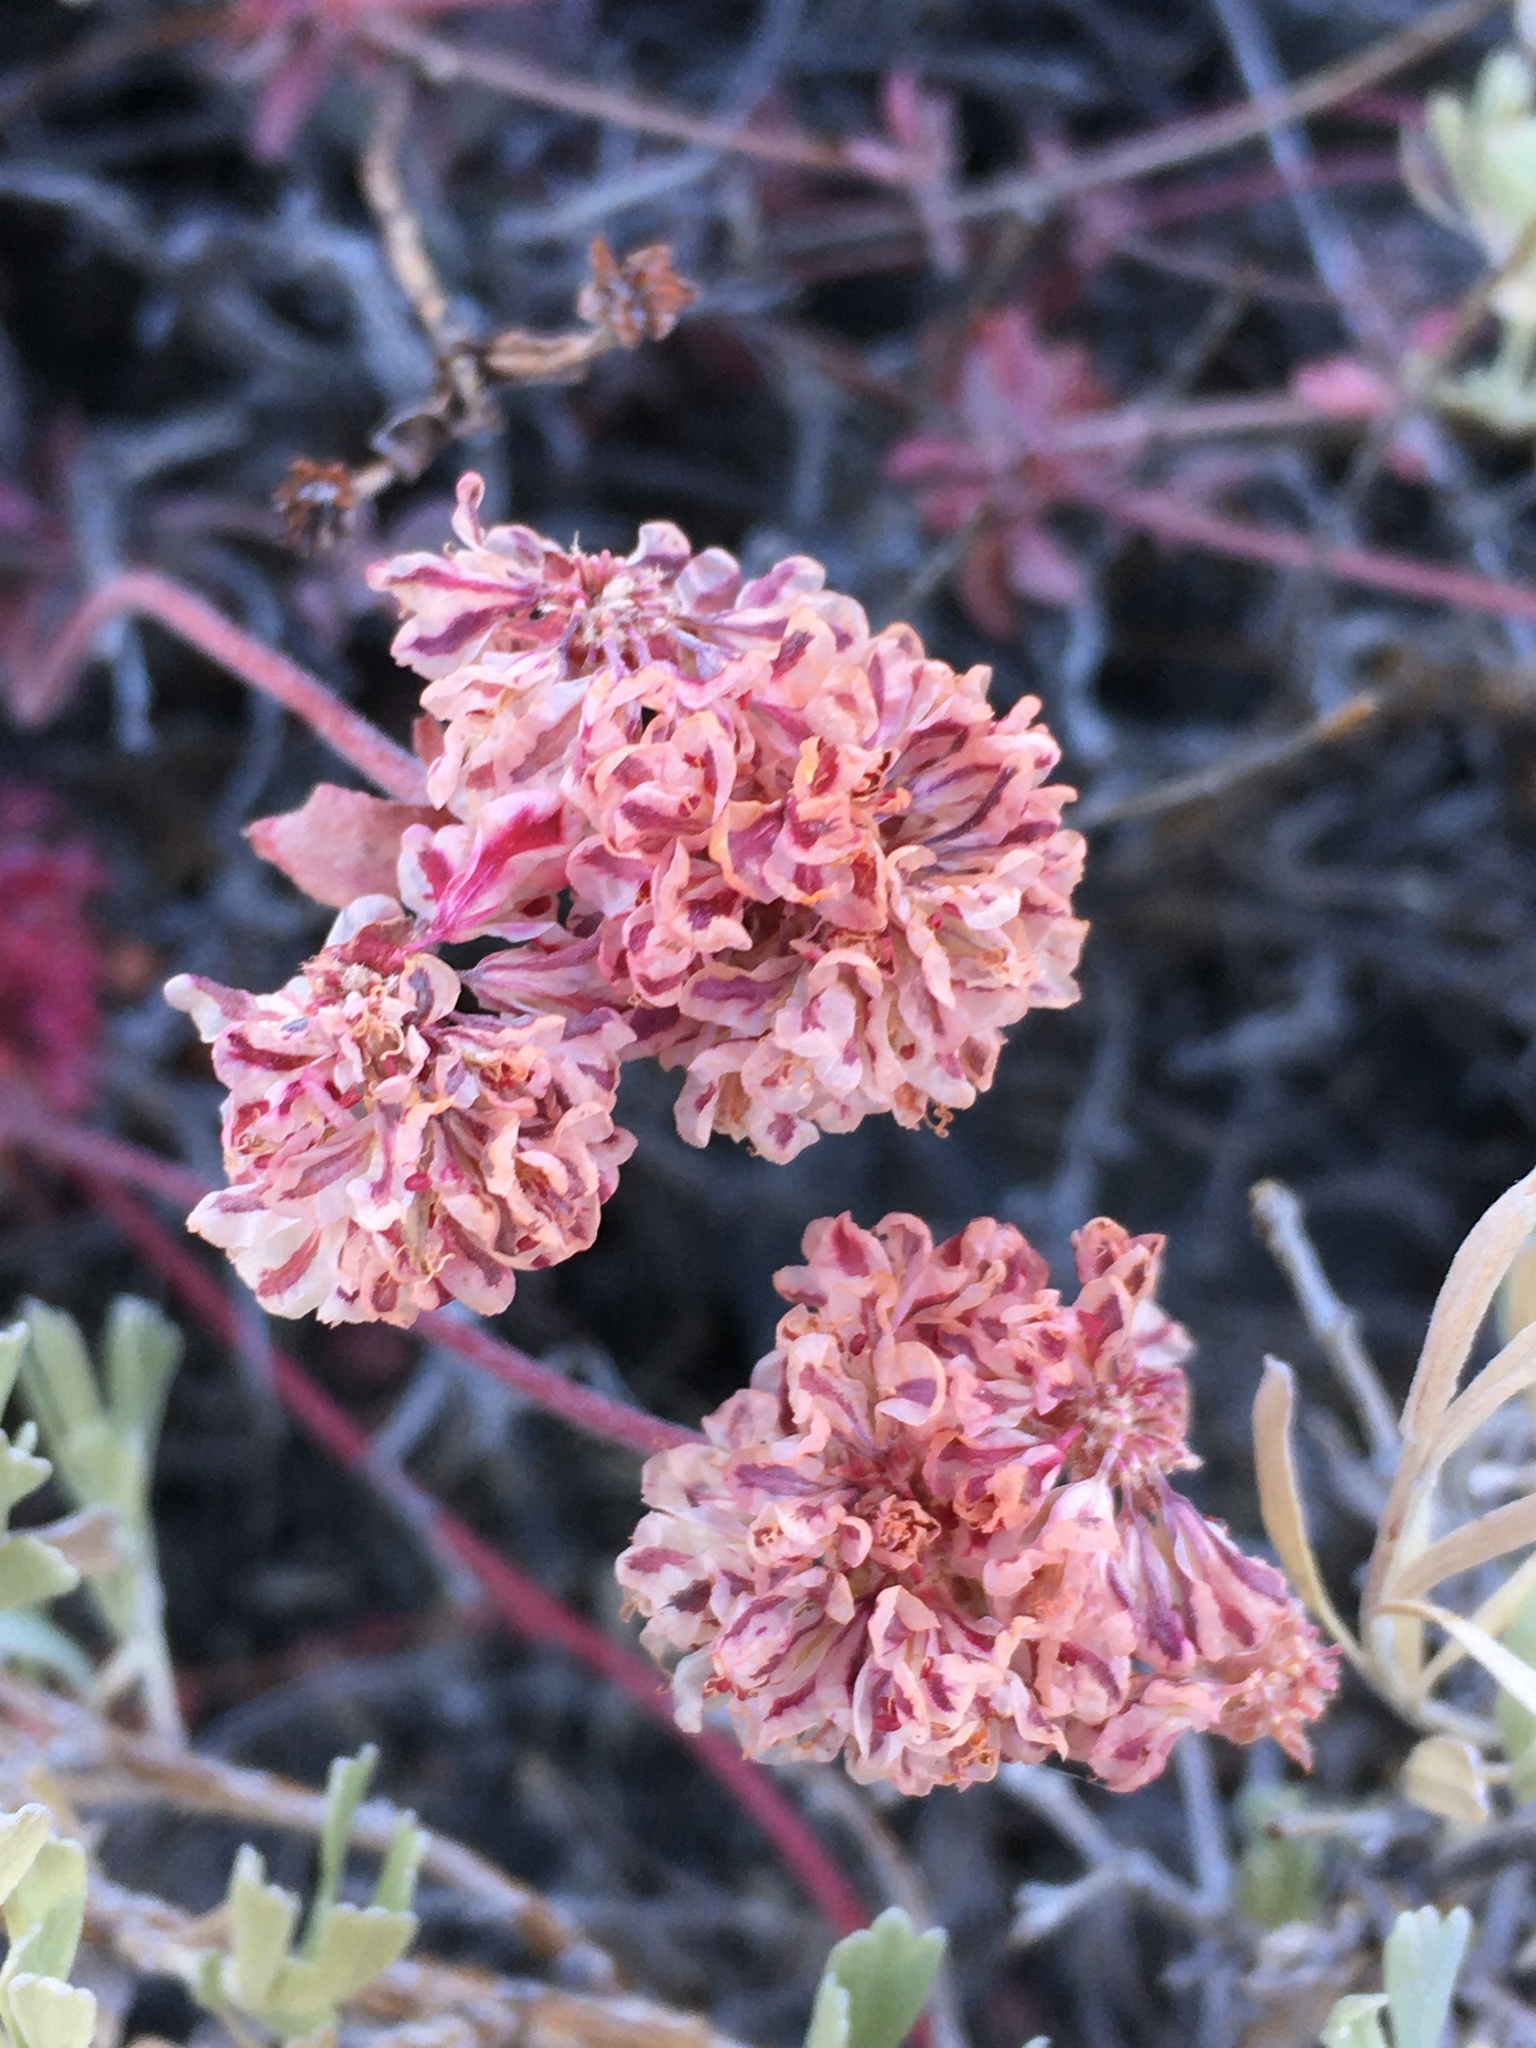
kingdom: Plantae
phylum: Tracheophyta
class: Magnoliopsida
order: Caryophyllales
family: Polygonaceae
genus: Eriogonum
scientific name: Eriogonum umbellatum
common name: Sulfur-buckwheat
